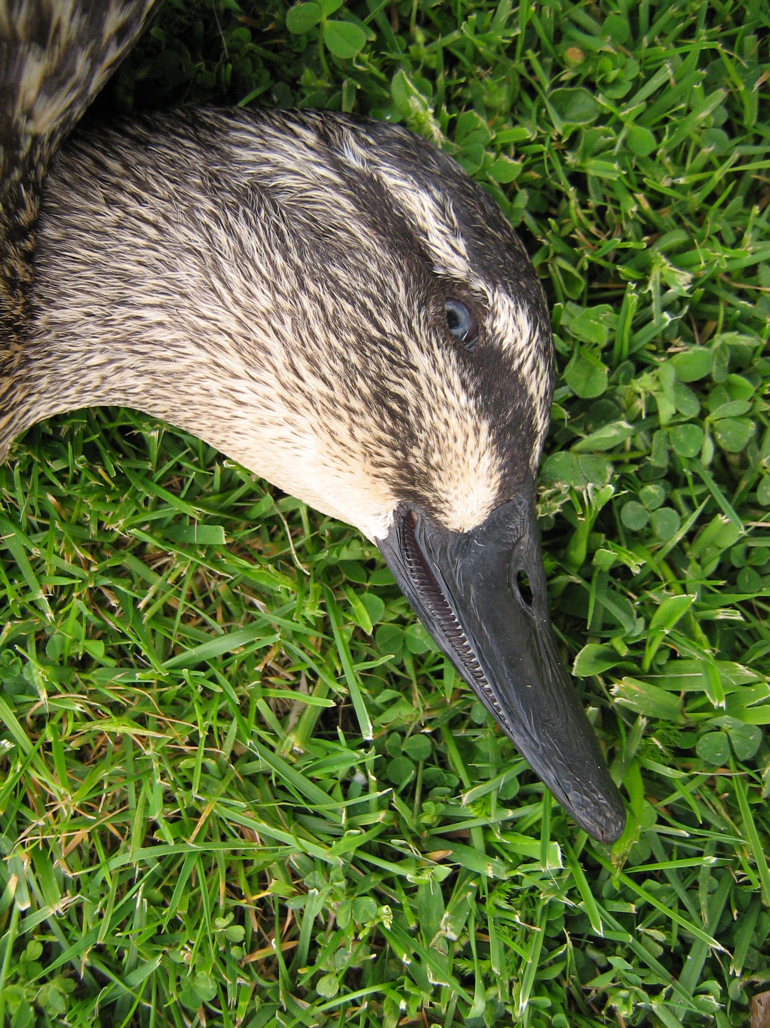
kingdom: Animalia
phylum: Chordata
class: Aves
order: Anseriformes
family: Anatidae
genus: Anas
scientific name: Anas
